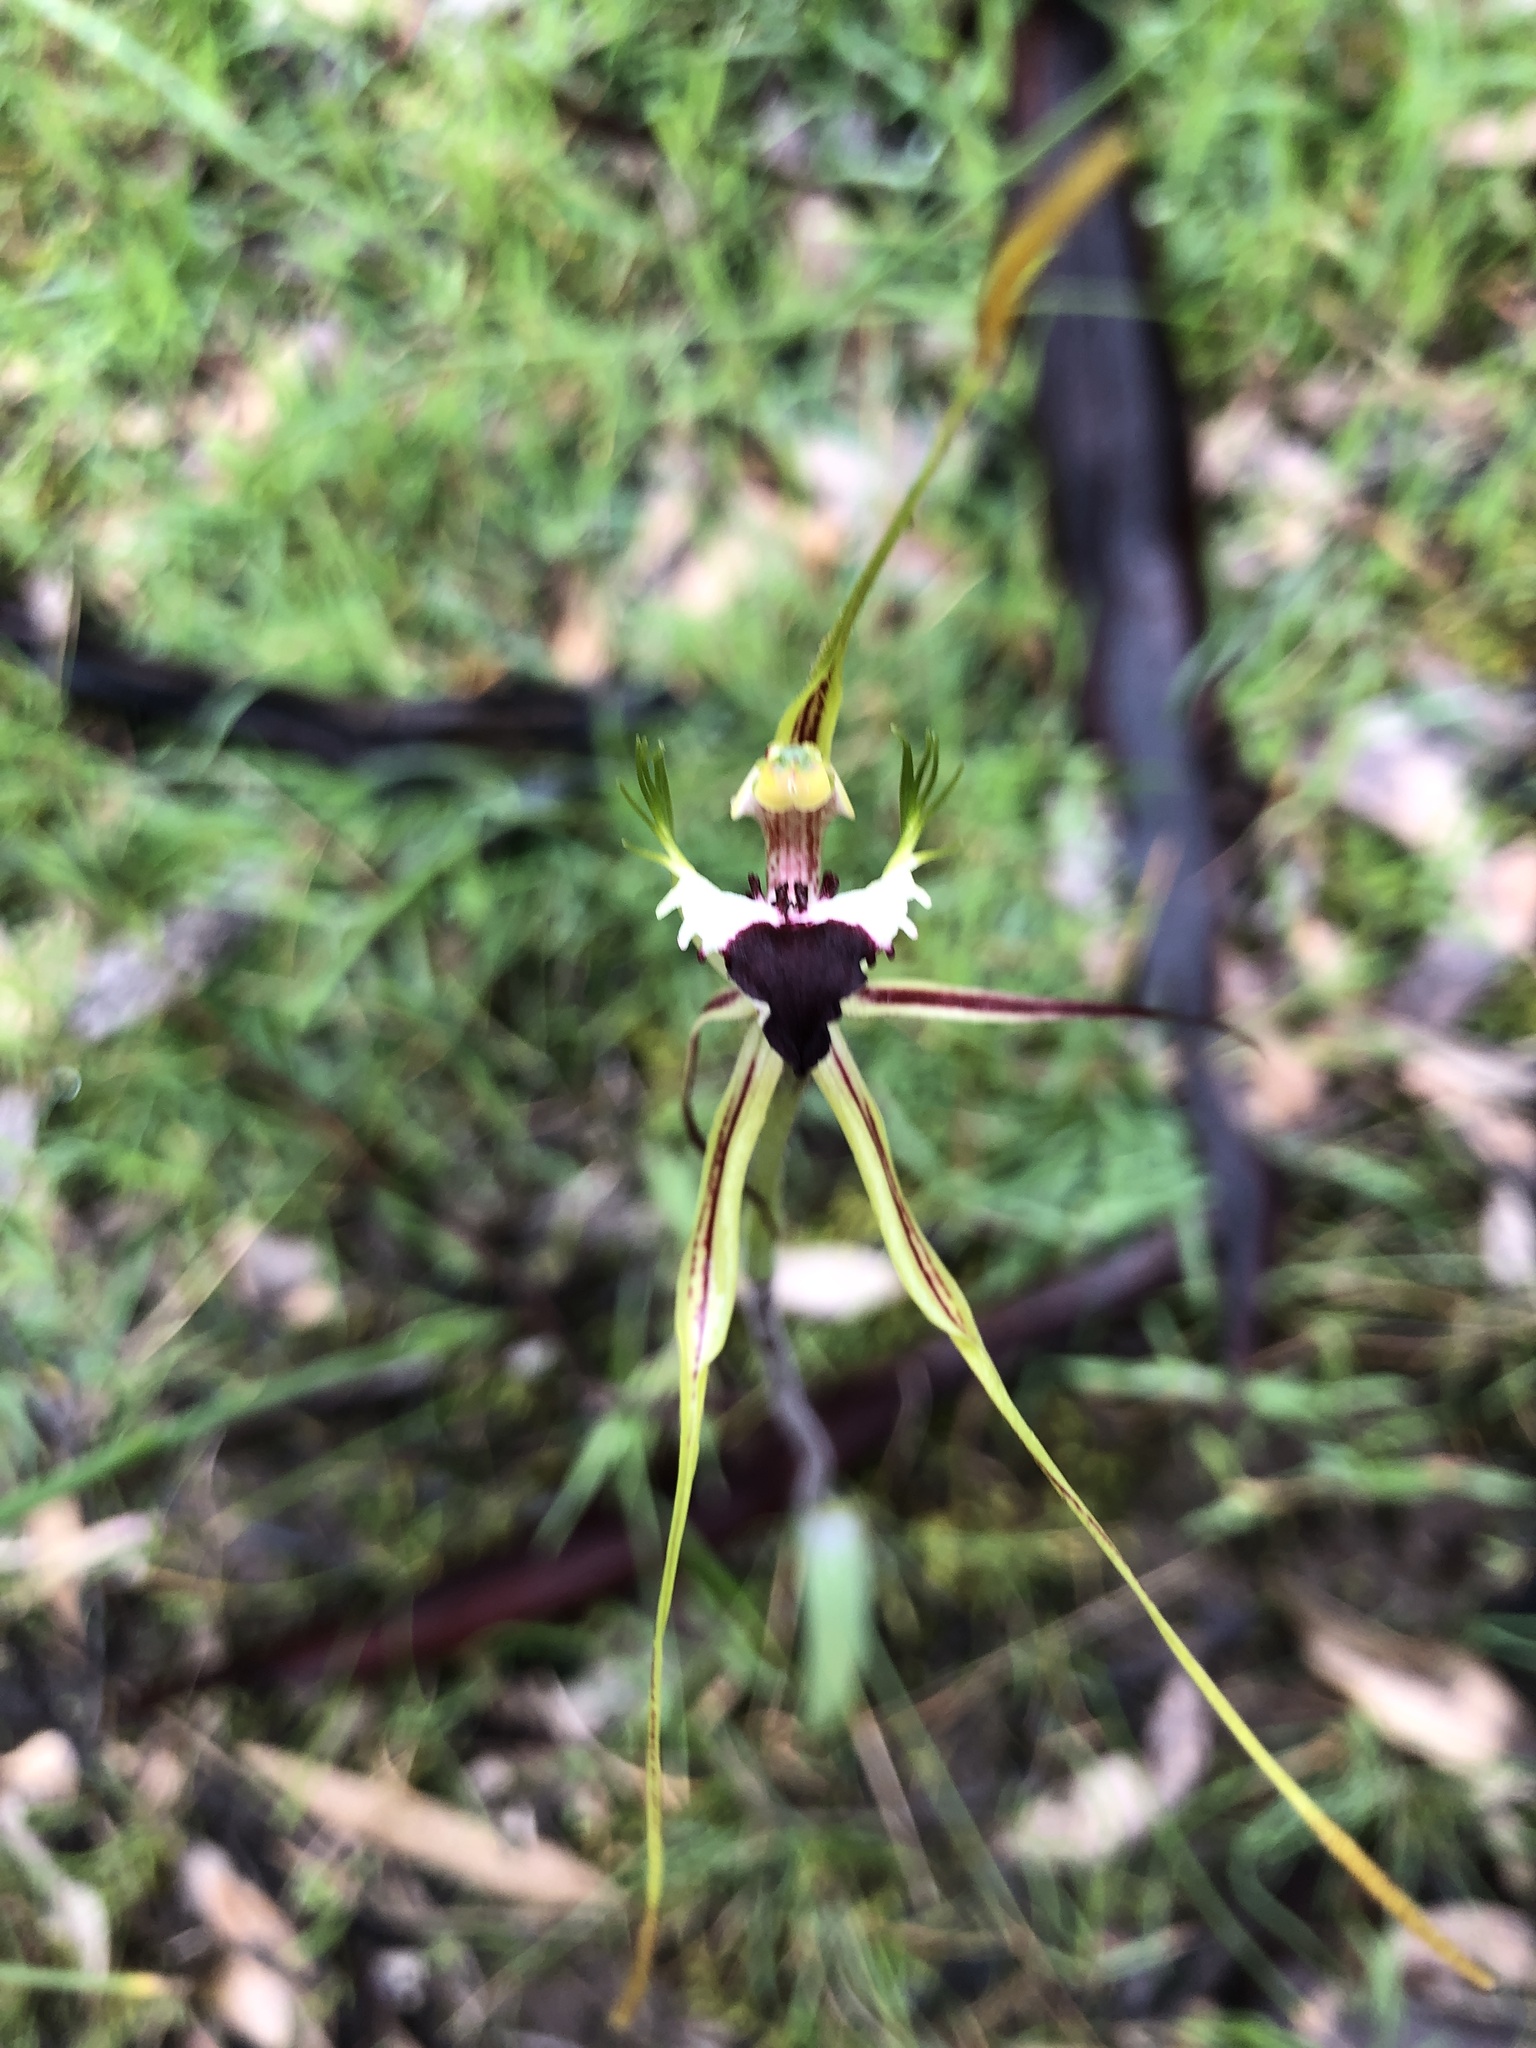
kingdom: Plantae
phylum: Tracheophyta
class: Liliopsida
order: Asparagales
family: Orchidaceae
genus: Caladenia
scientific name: Caladenia tentaculata
